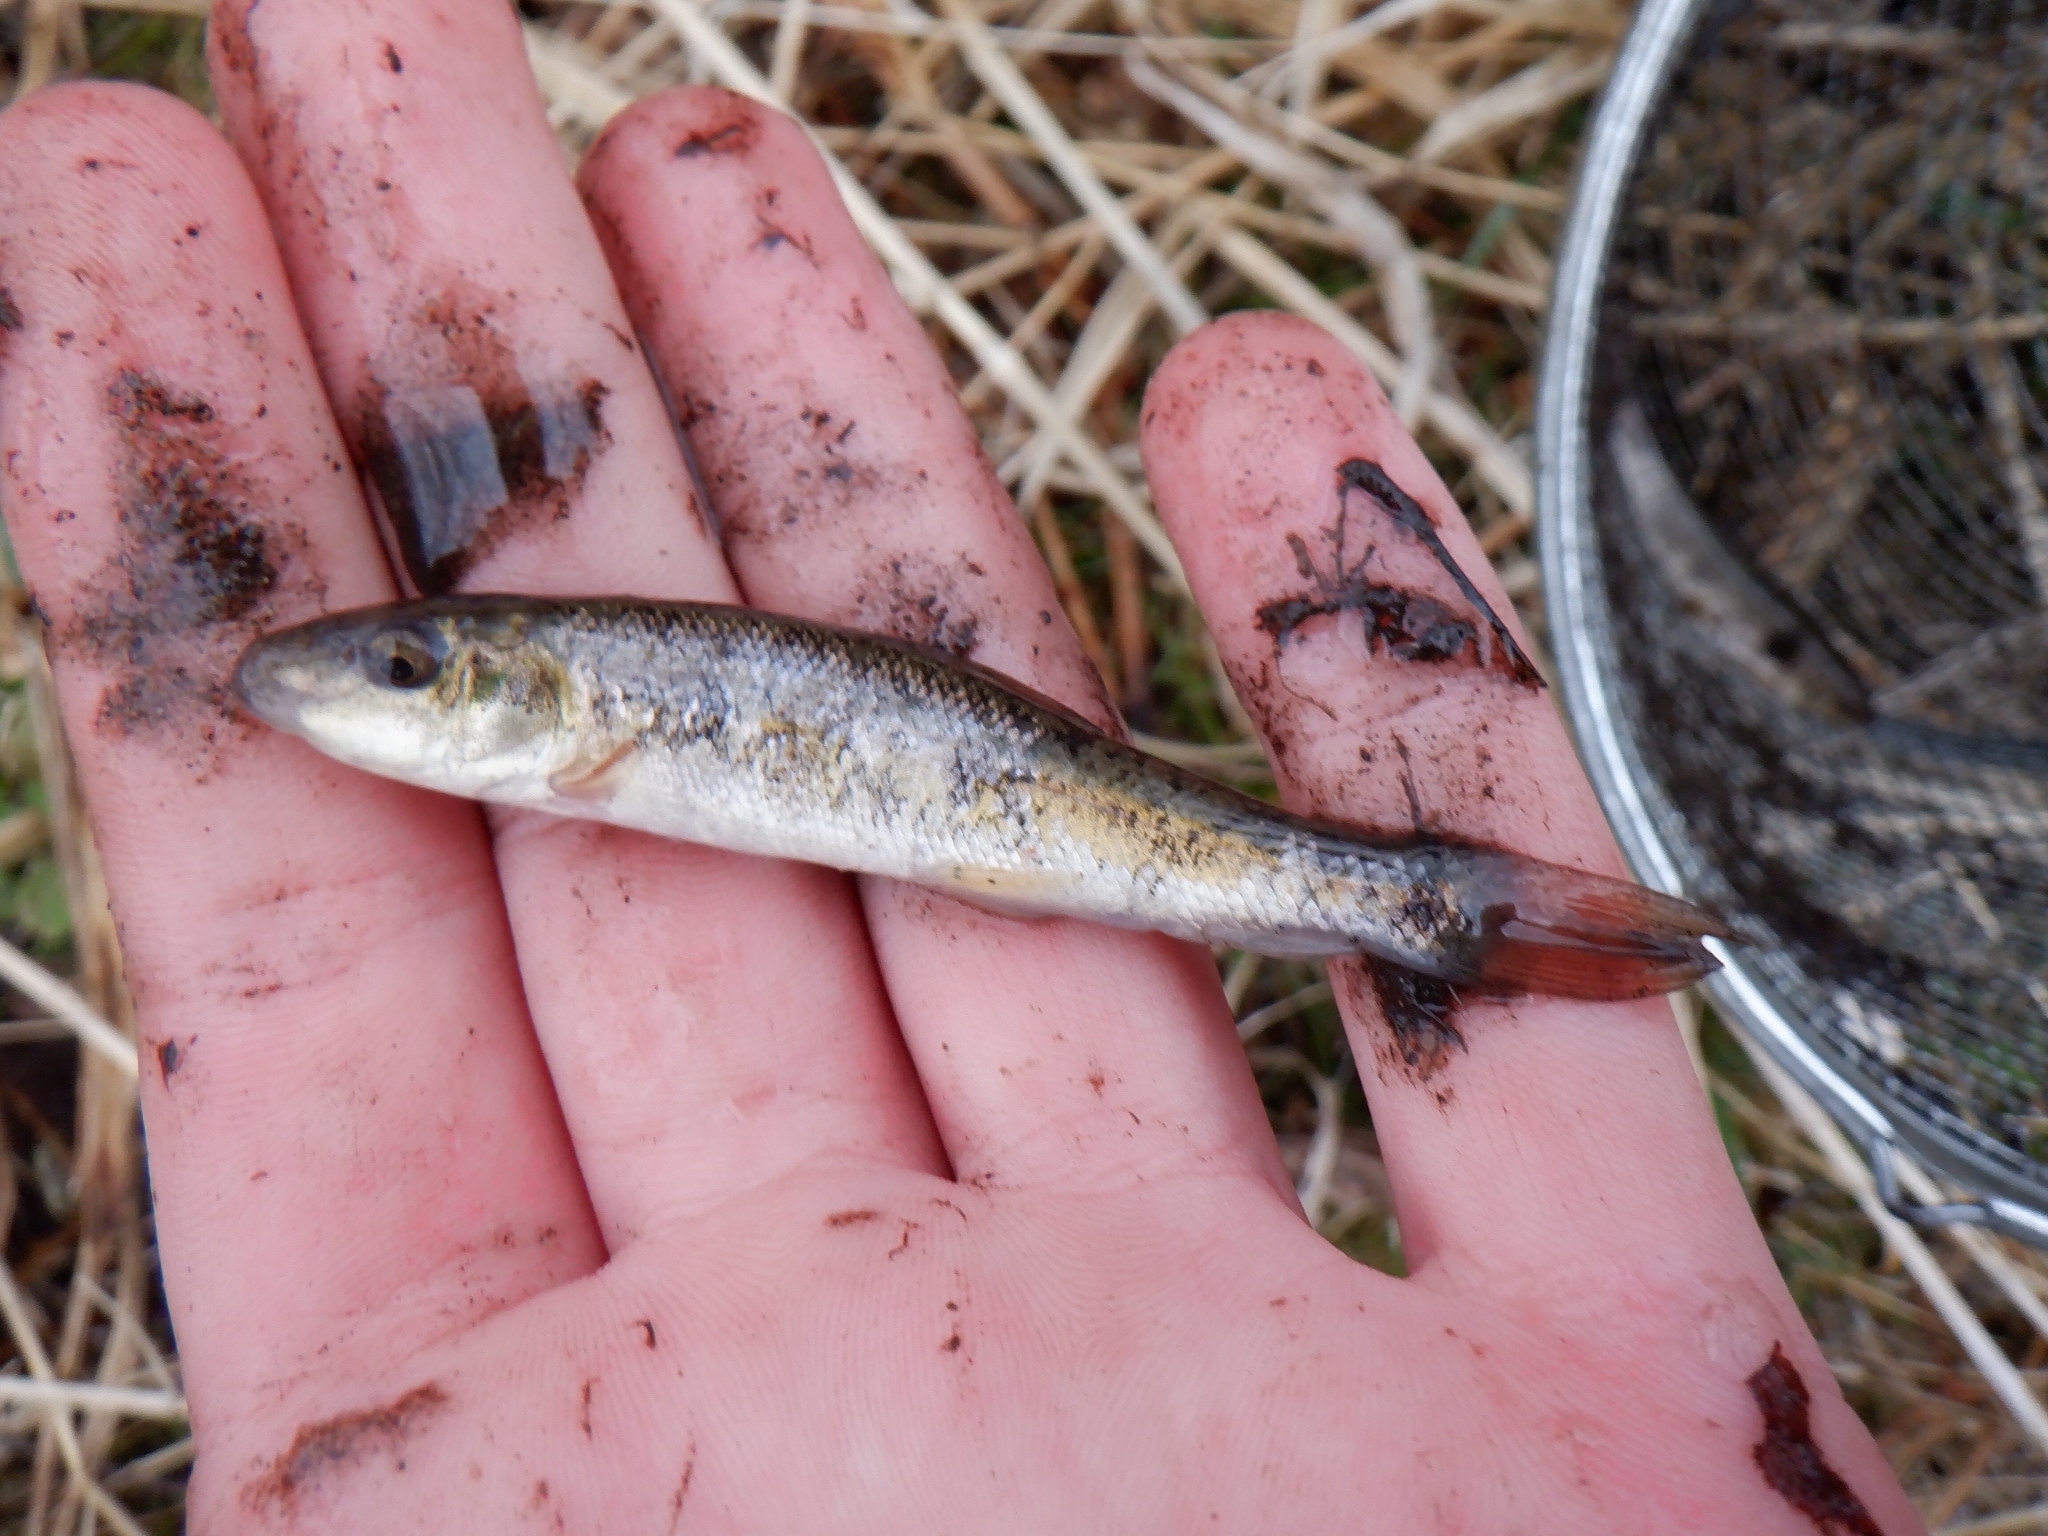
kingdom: Animalia
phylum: Chordata
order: Cypriniformes
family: Catostomidae
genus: Catostomus
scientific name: Catostomus commersonii
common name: White sucker
